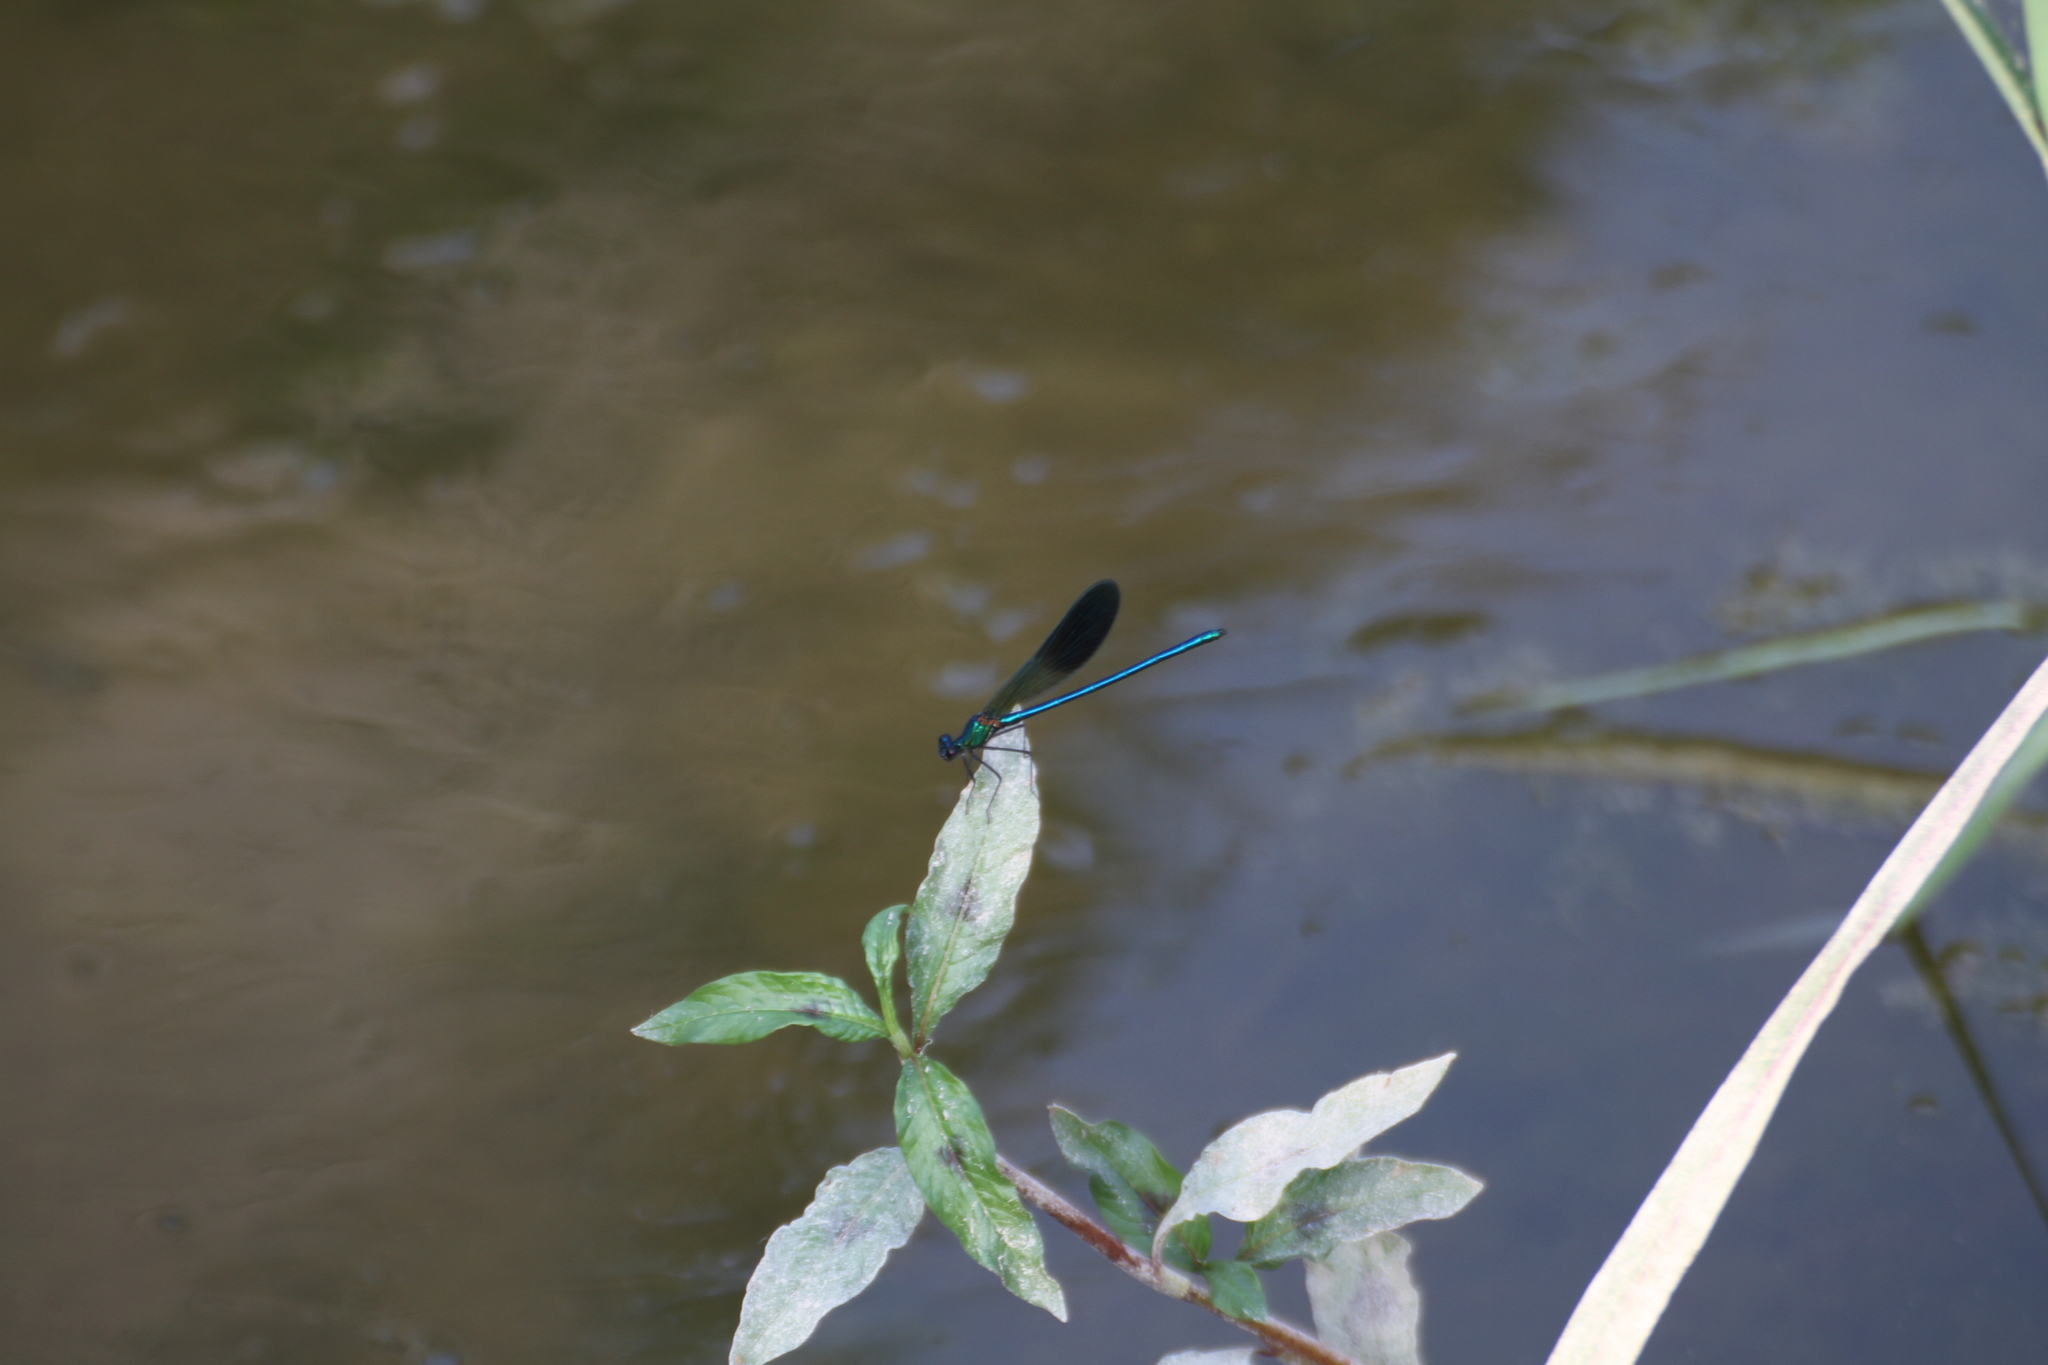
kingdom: Animalia
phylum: Arthropoda
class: Insecta
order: Odonata
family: Calopterygidae
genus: Calopteryx
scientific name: Calopteryx xanthostoma
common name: Western demoiselle
